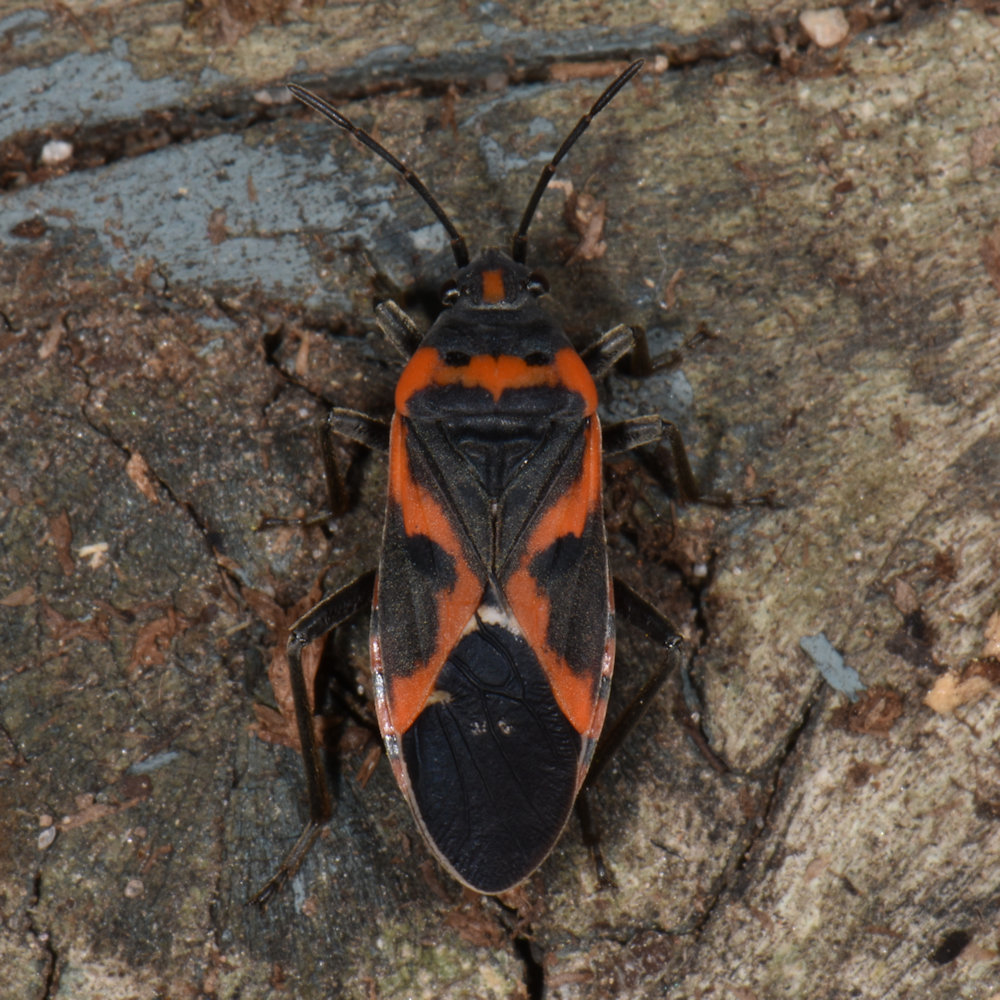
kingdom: Animalia
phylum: Arthropoda
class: Insecta
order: Hemiptera
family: Lygaeidae
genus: Lygaeus
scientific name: Lygaeus kalmii
